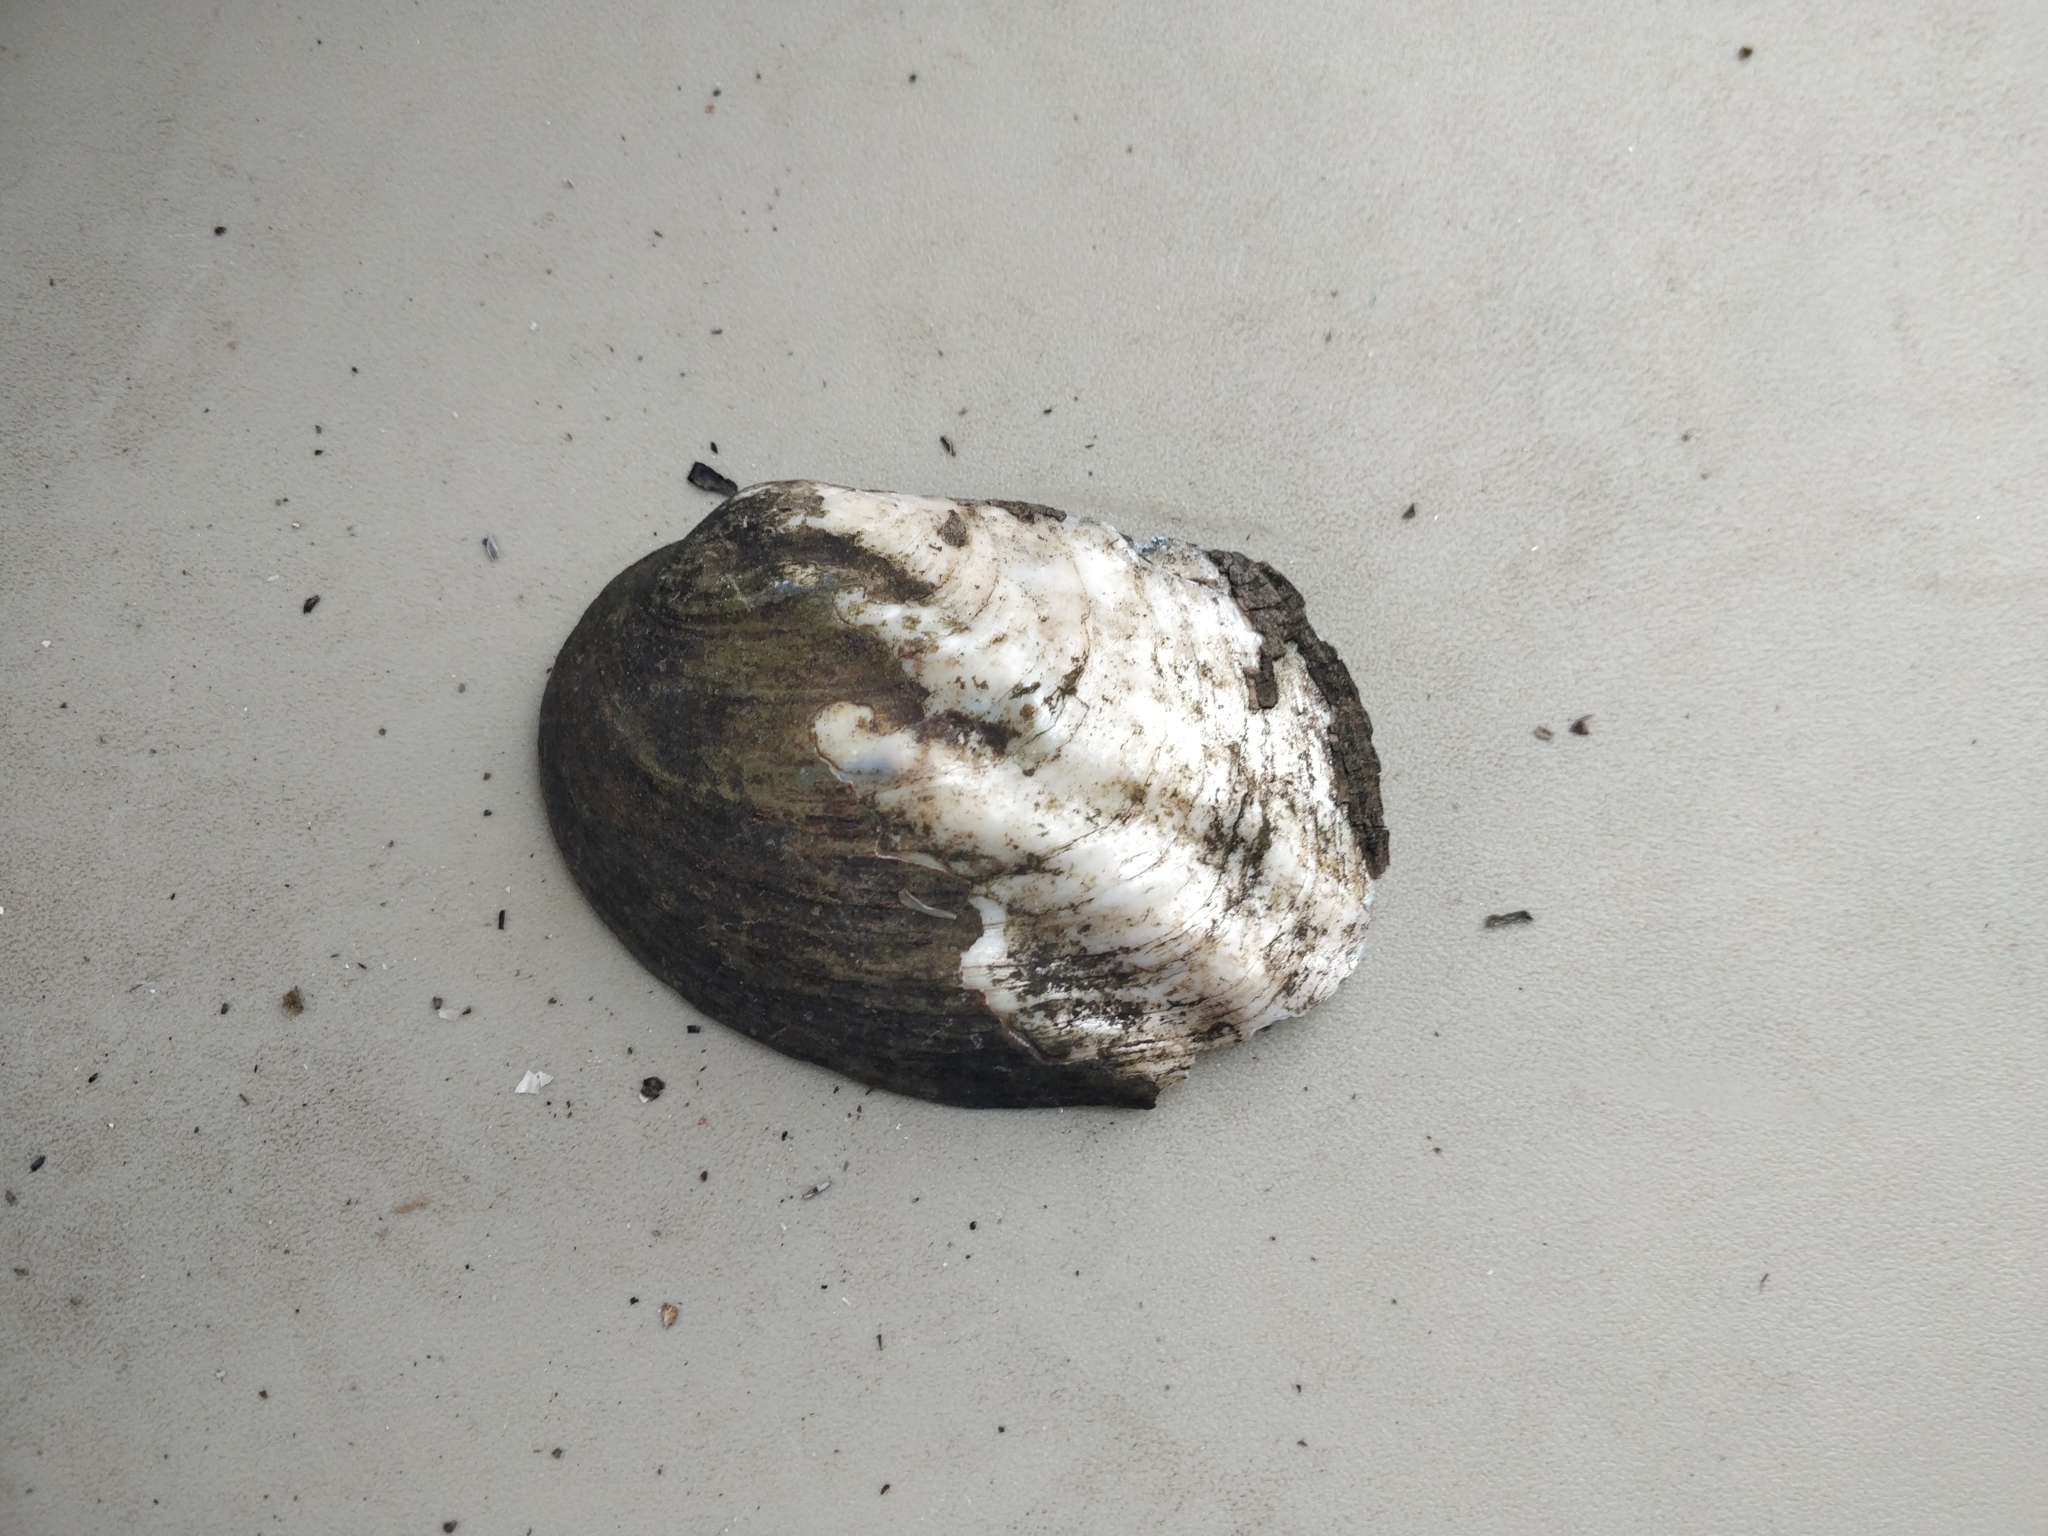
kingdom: Animalia
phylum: Mollusca
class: Bivalvia
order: Unionida
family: Unionidae
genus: Amblema
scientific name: Amblema plicata
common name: Threeridge
